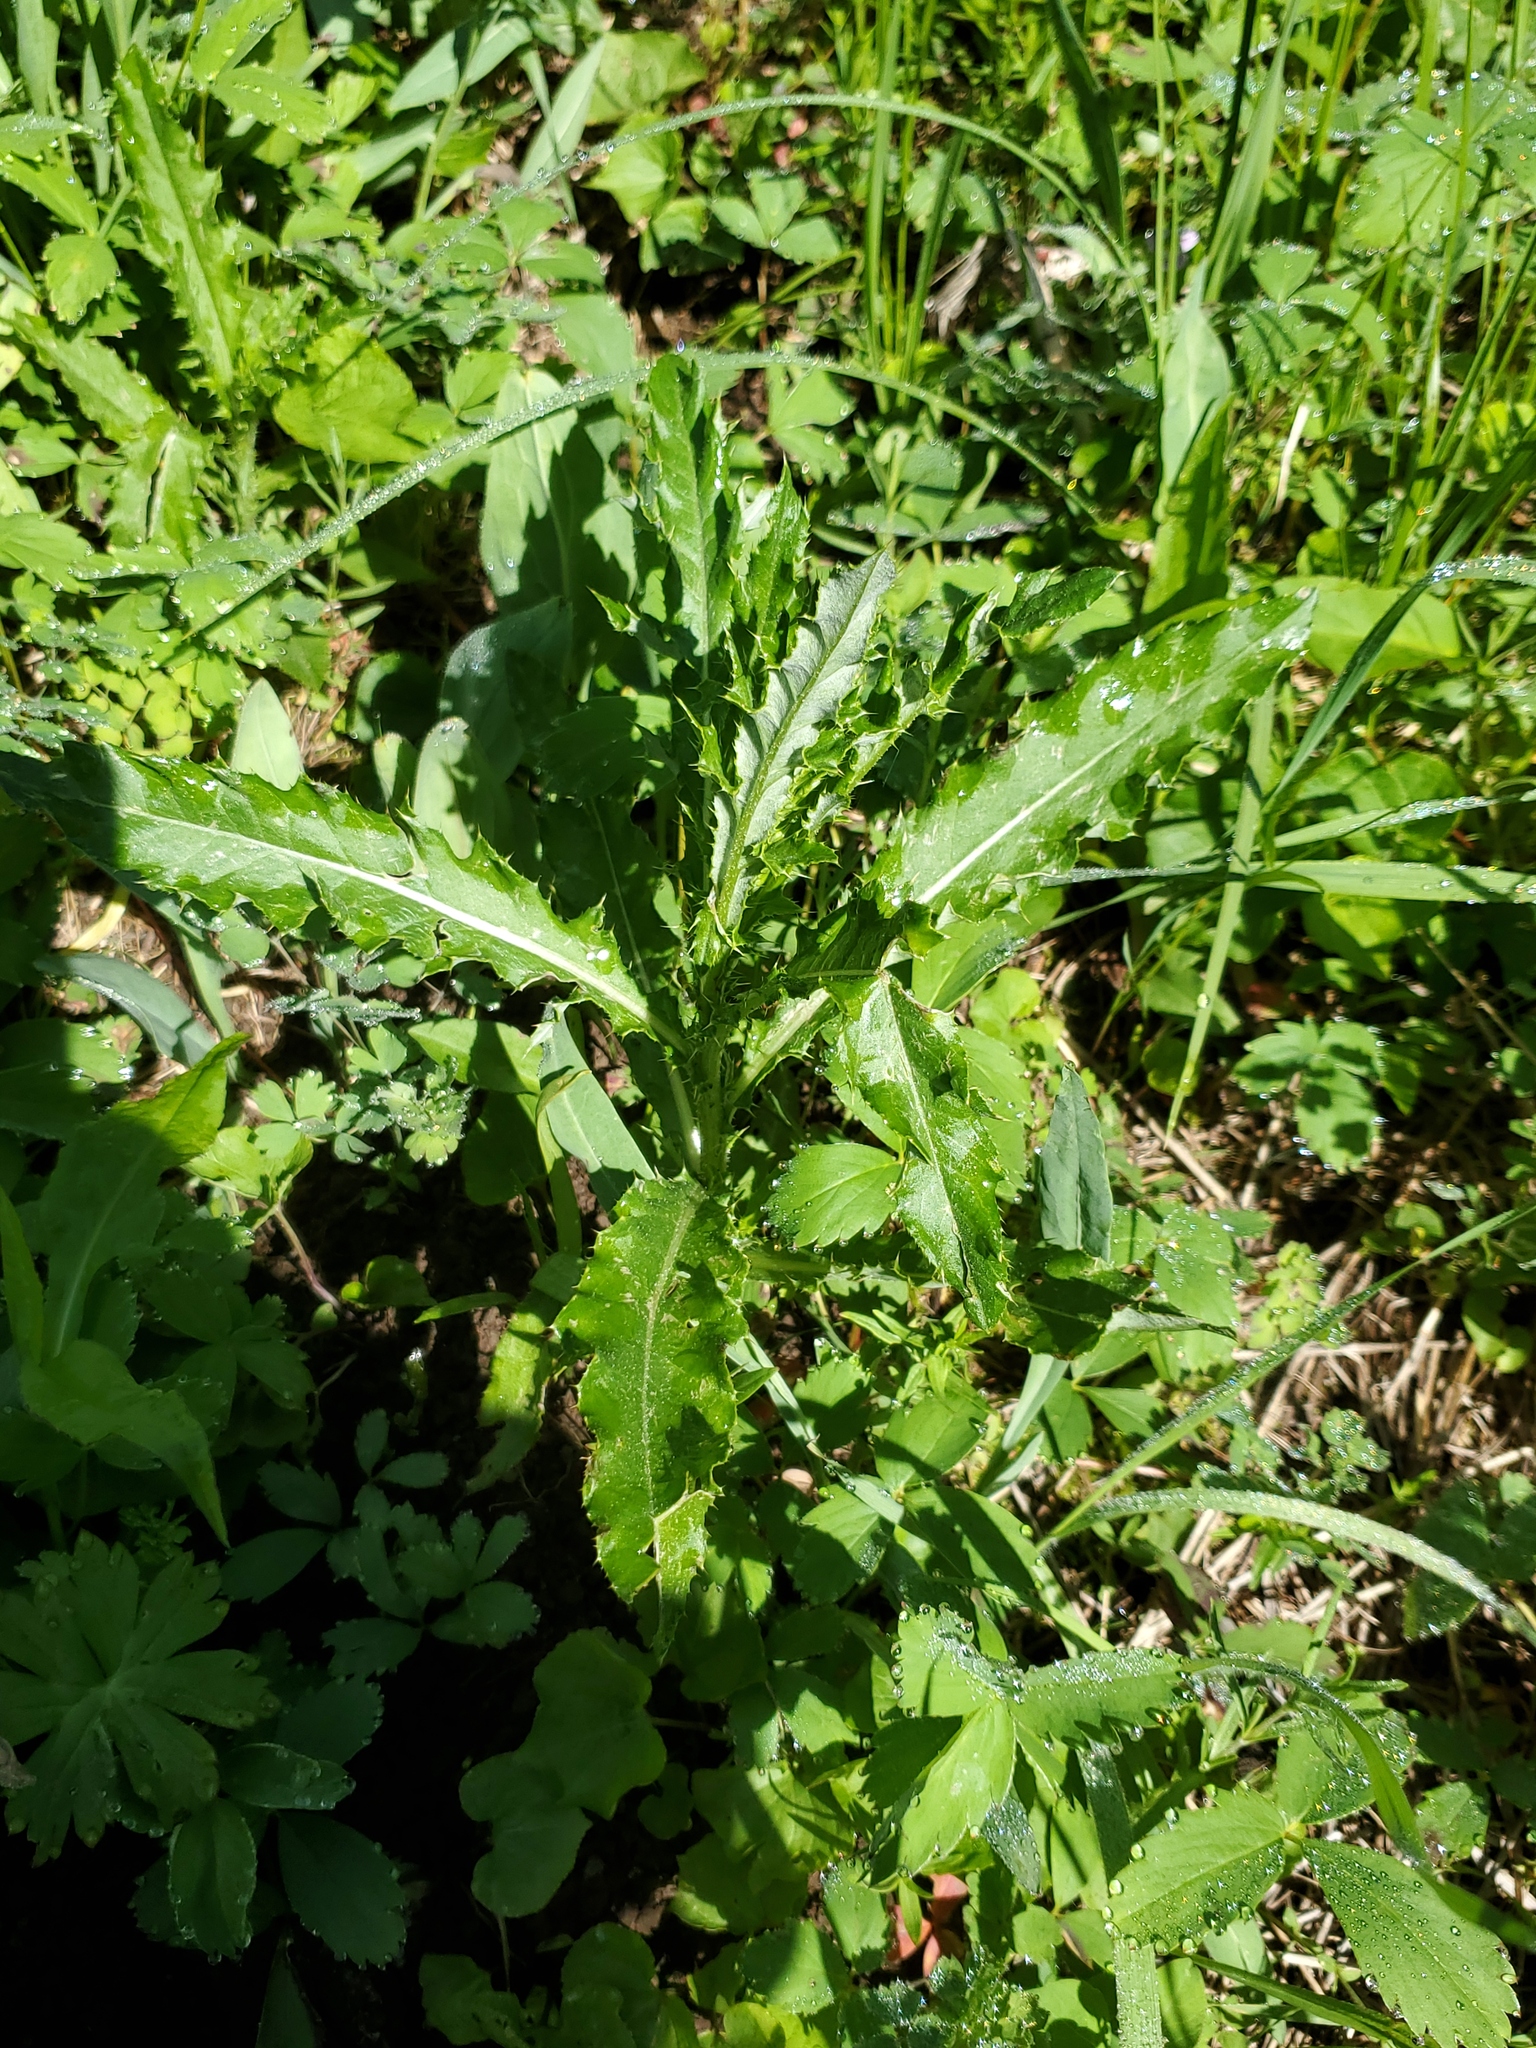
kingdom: Plantae
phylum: Tracheophyta
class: Magnoliopsida
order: Asterales
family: Asteraceae
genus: Cirsium
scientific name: Cirsium arvense
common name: Creeping thistle
